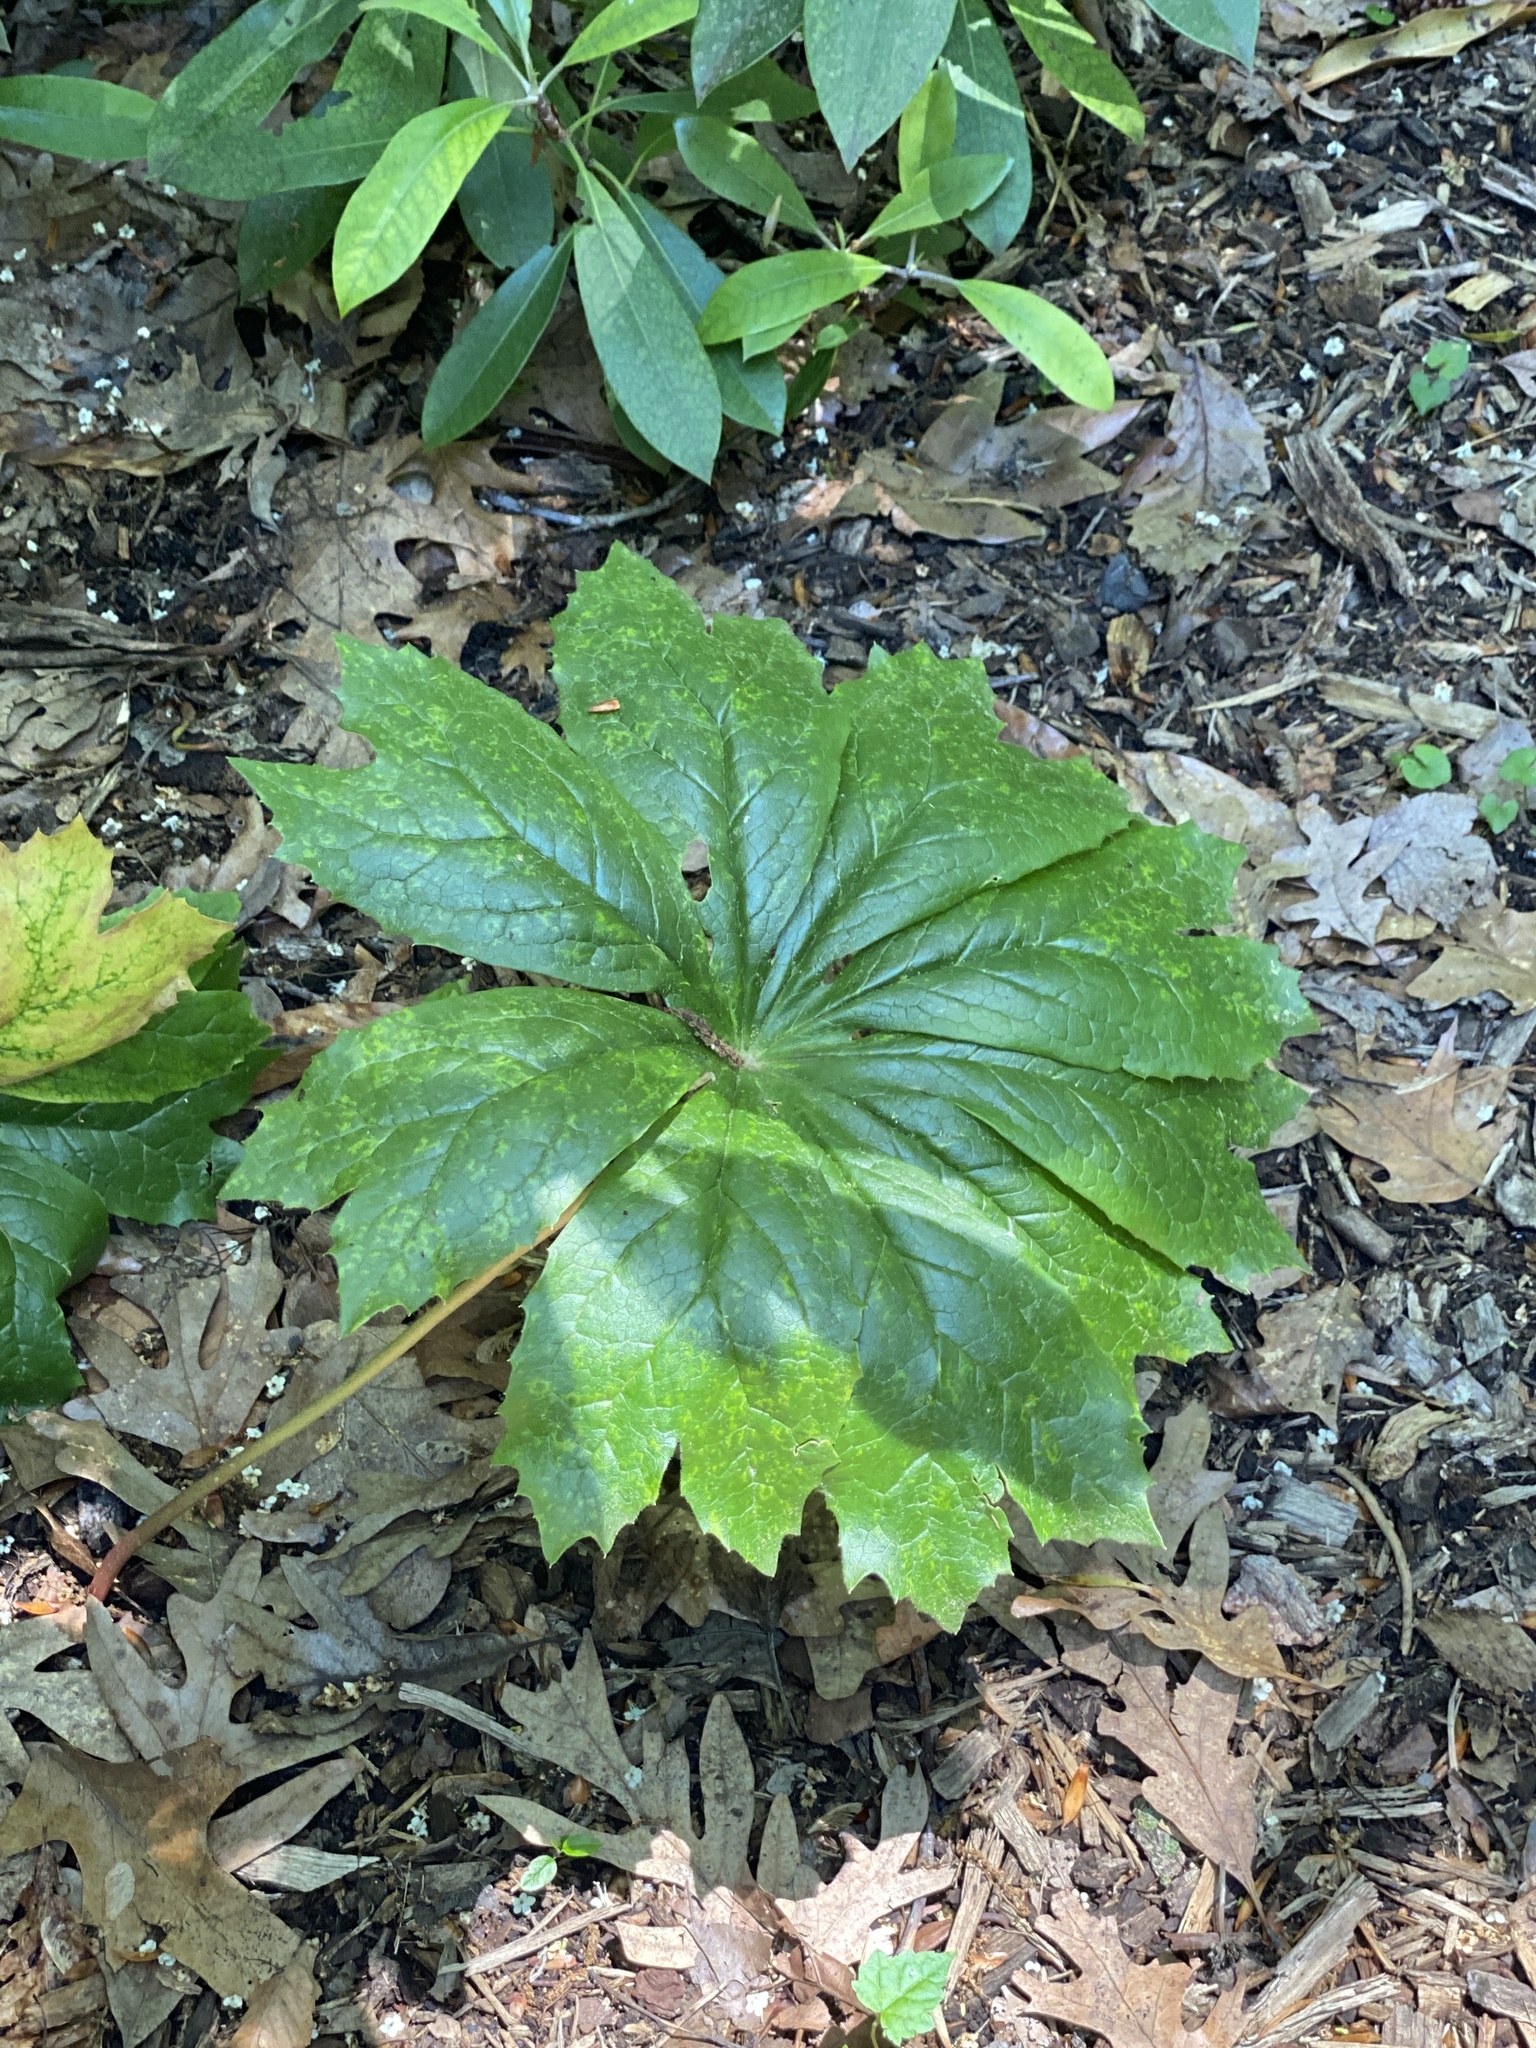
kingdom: Plantae
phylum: Tracheophyta
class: Magnoliopsida
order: Ranunculales
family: Berberidaceae
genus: Podophyllum
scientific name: Podophyllum peltatum
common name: Wild mandrake
